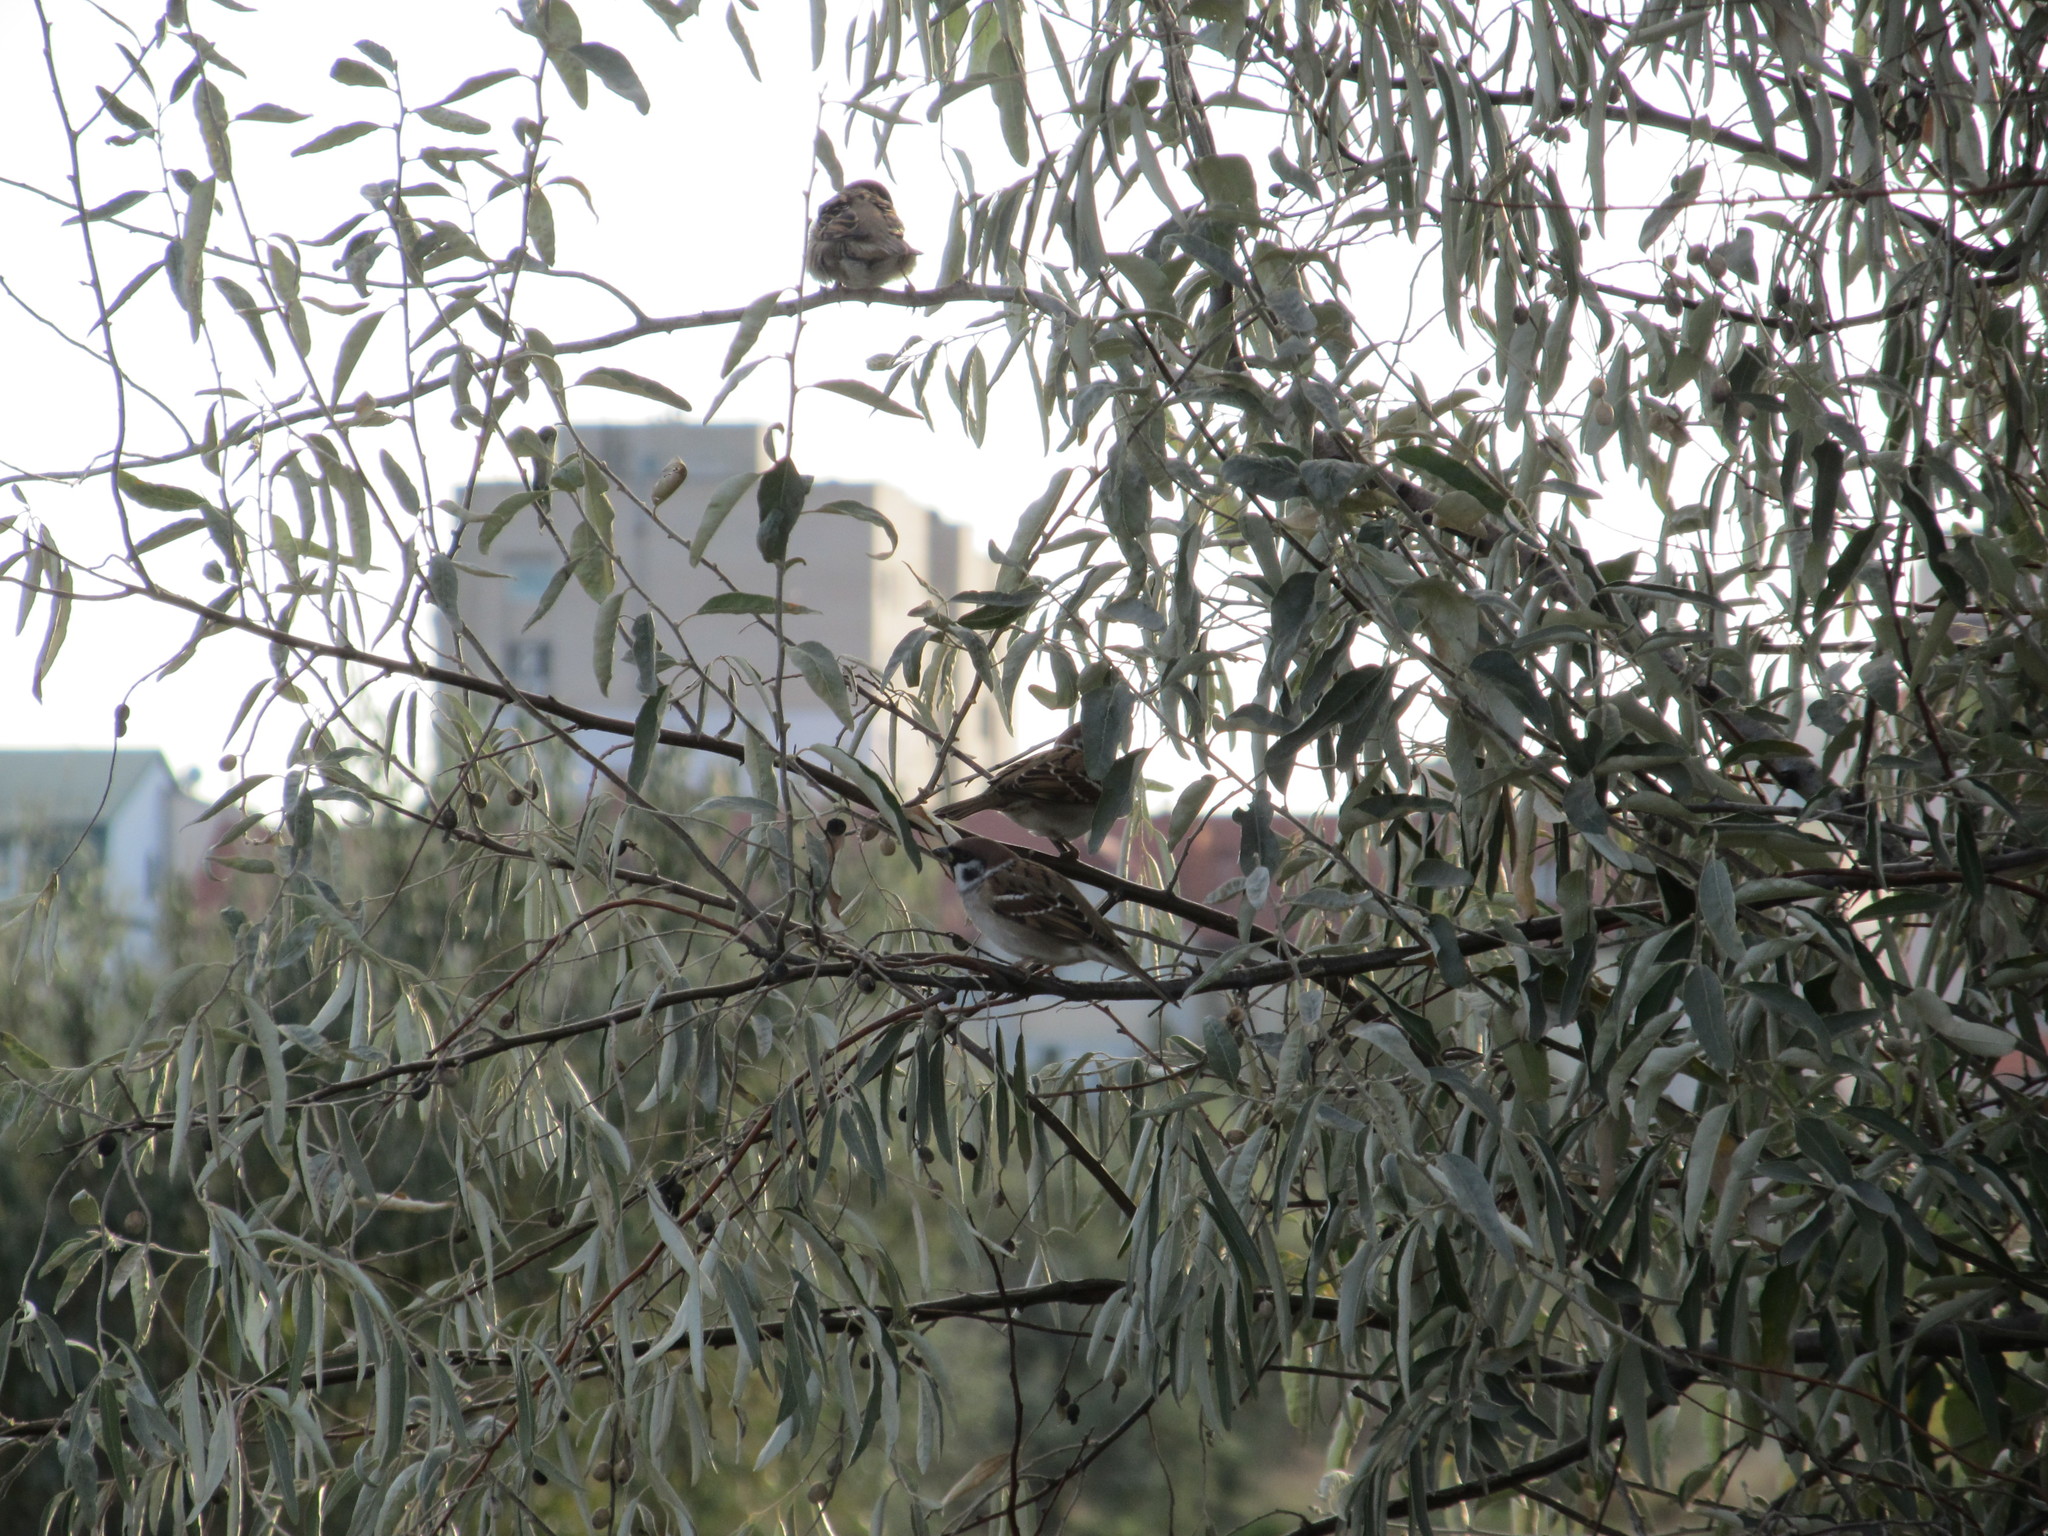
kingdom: Animalia
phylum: Chordata
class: Aves
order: Passeriformes
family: Passeridae
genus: Passer
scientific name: Passer montanus
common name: Eurasian tree sparrow
